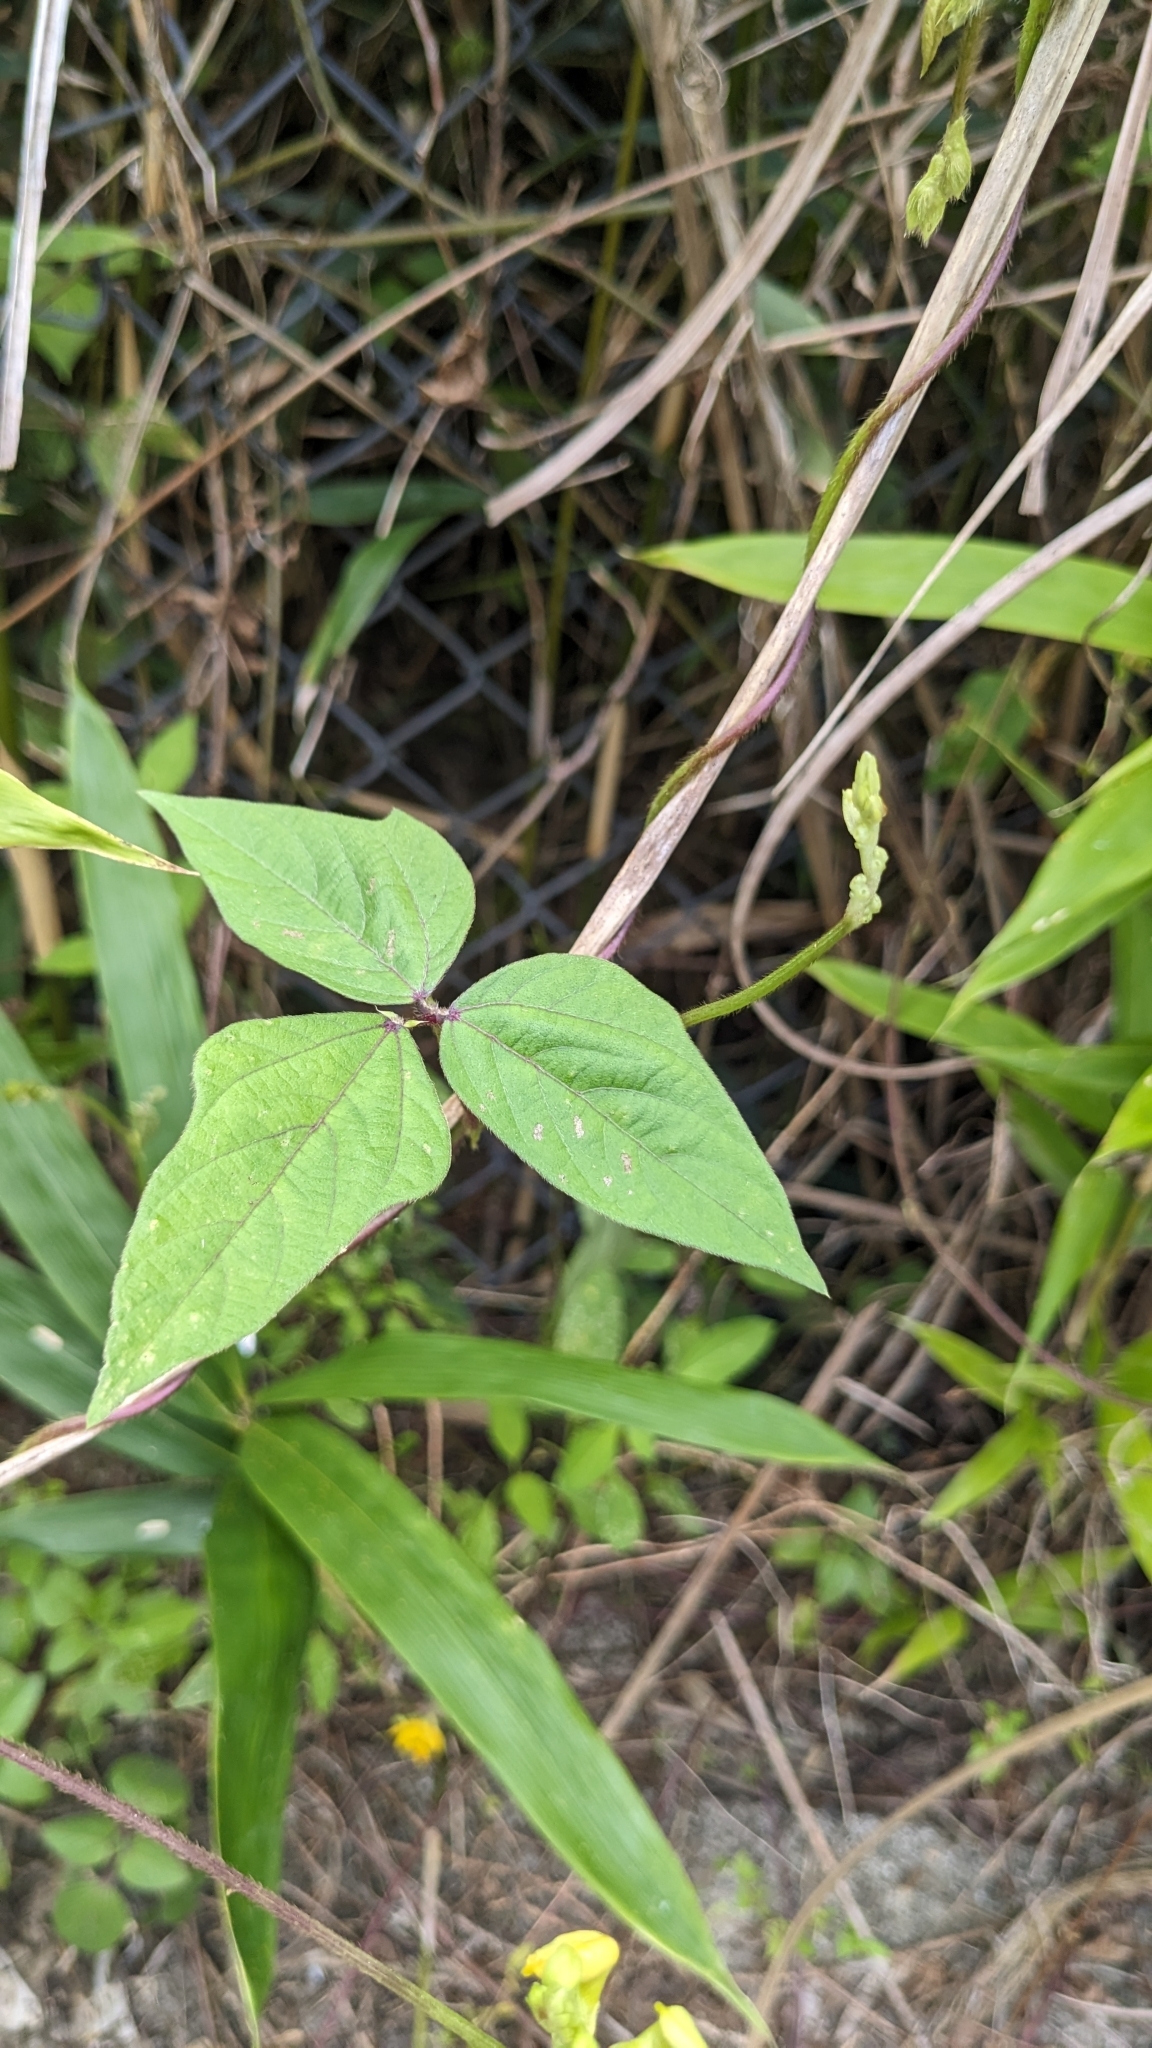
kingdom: Plantae
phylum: Tracheophyta
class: Magnoliopsida
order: Fabales
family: Fabaceae
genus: Vigna
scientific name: Vigna reflexopilosa
